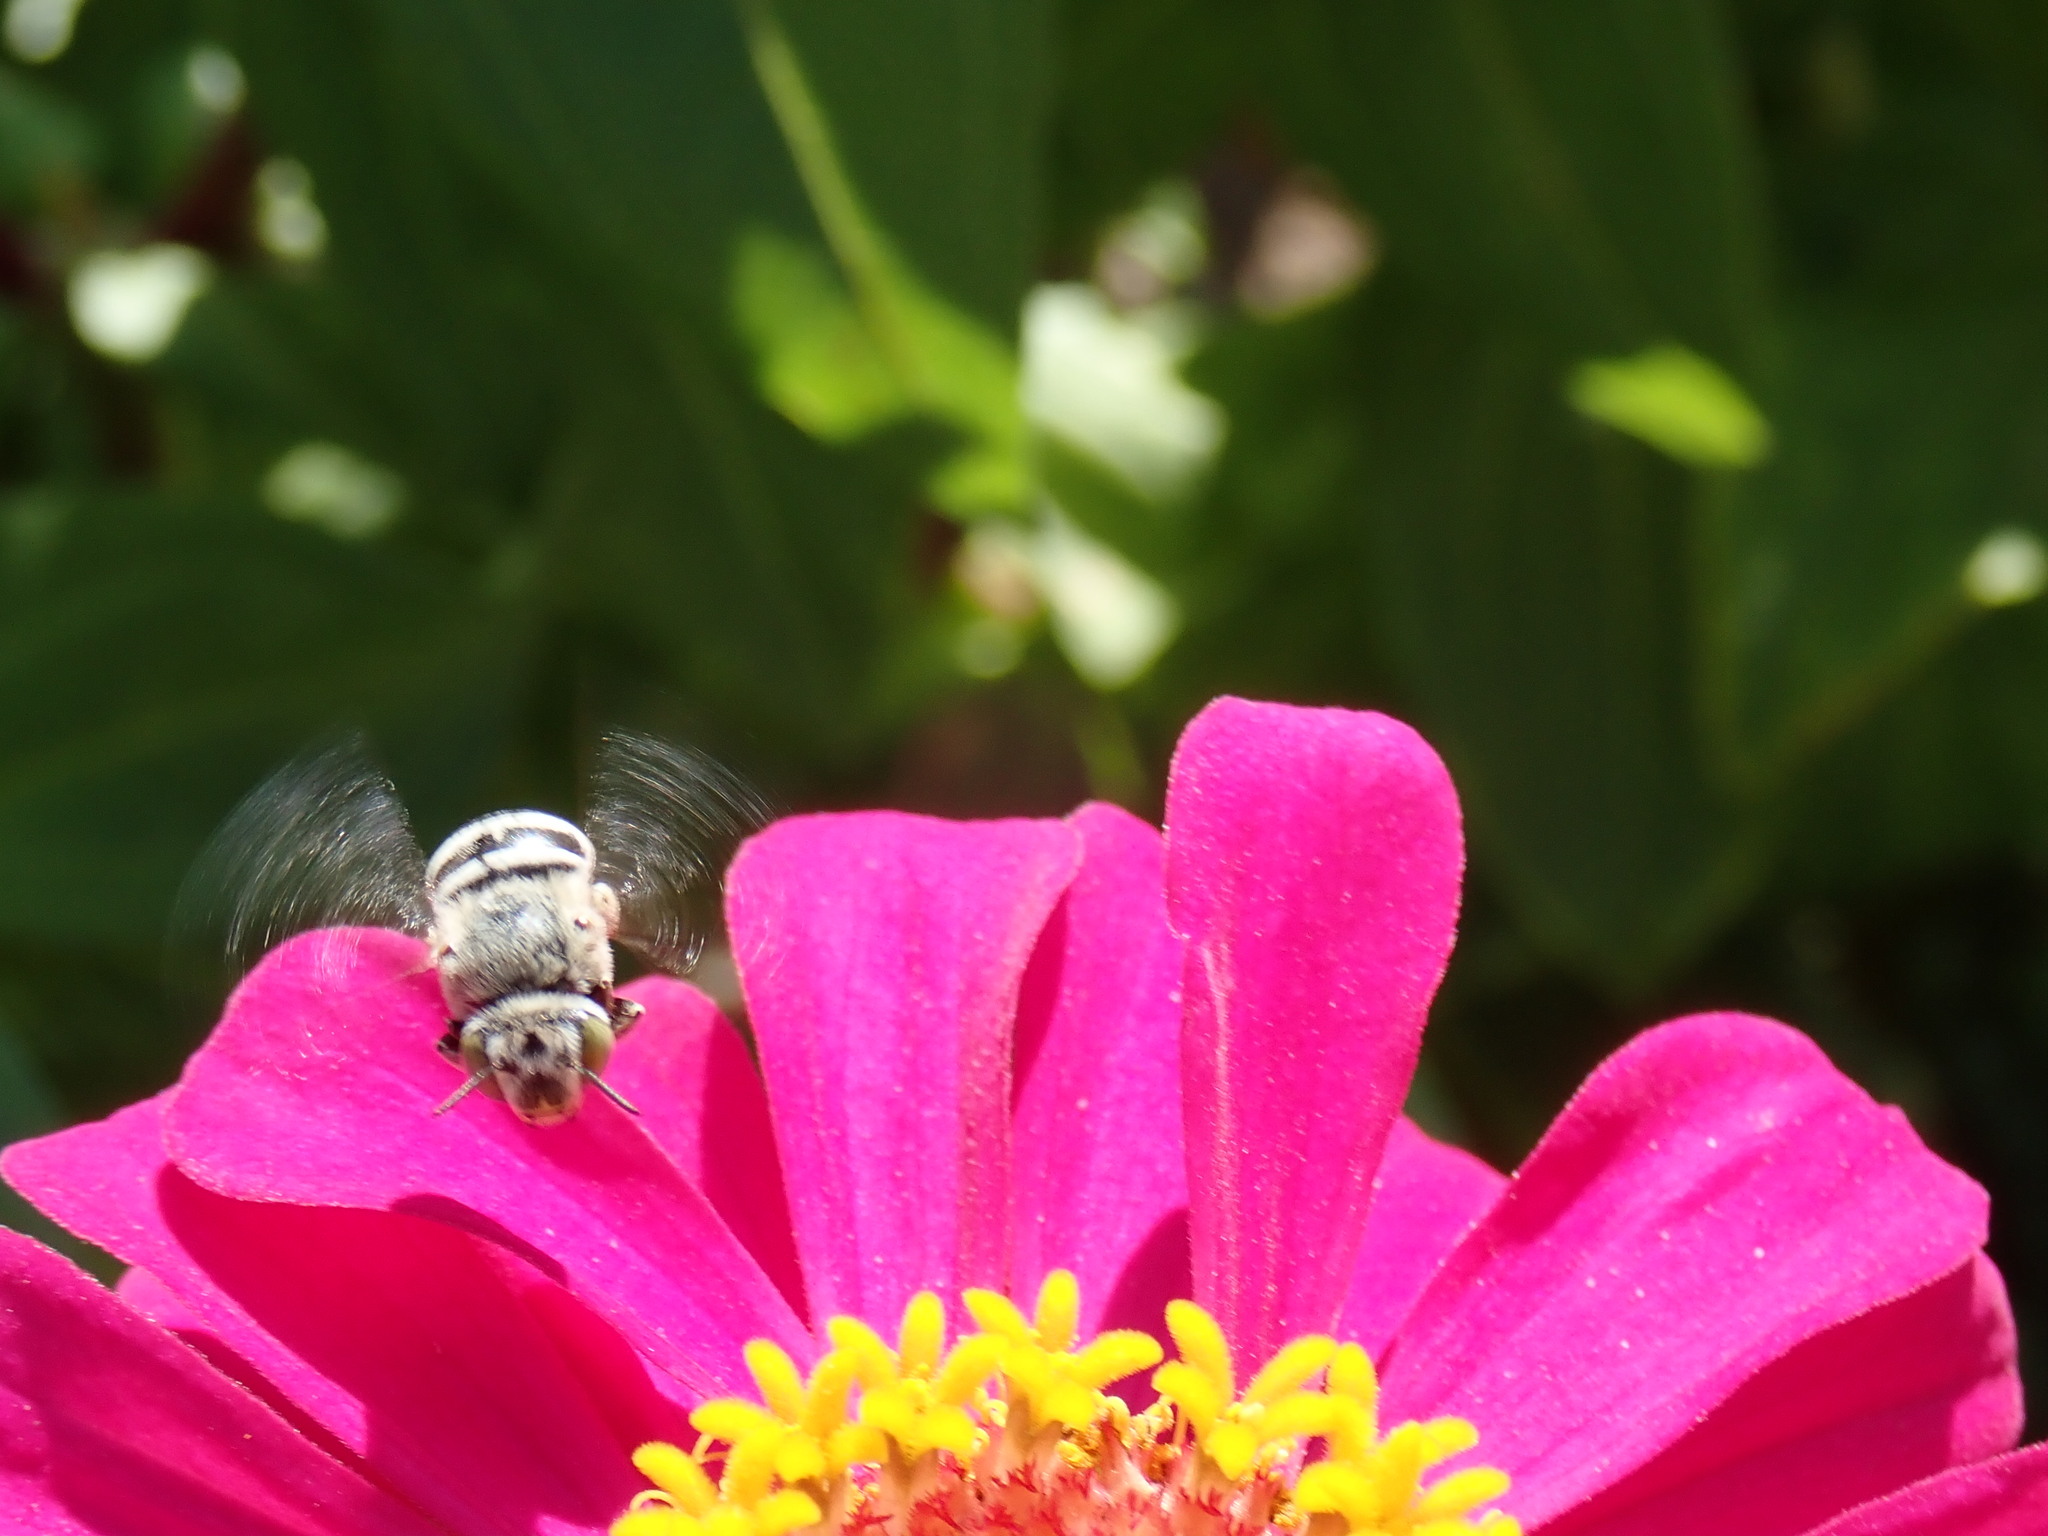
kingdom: Animalia
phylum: Arthropoda
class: Insecta
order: Hymenoptera
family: Apidae
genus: Amegilla
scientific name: Amegilla salviae
